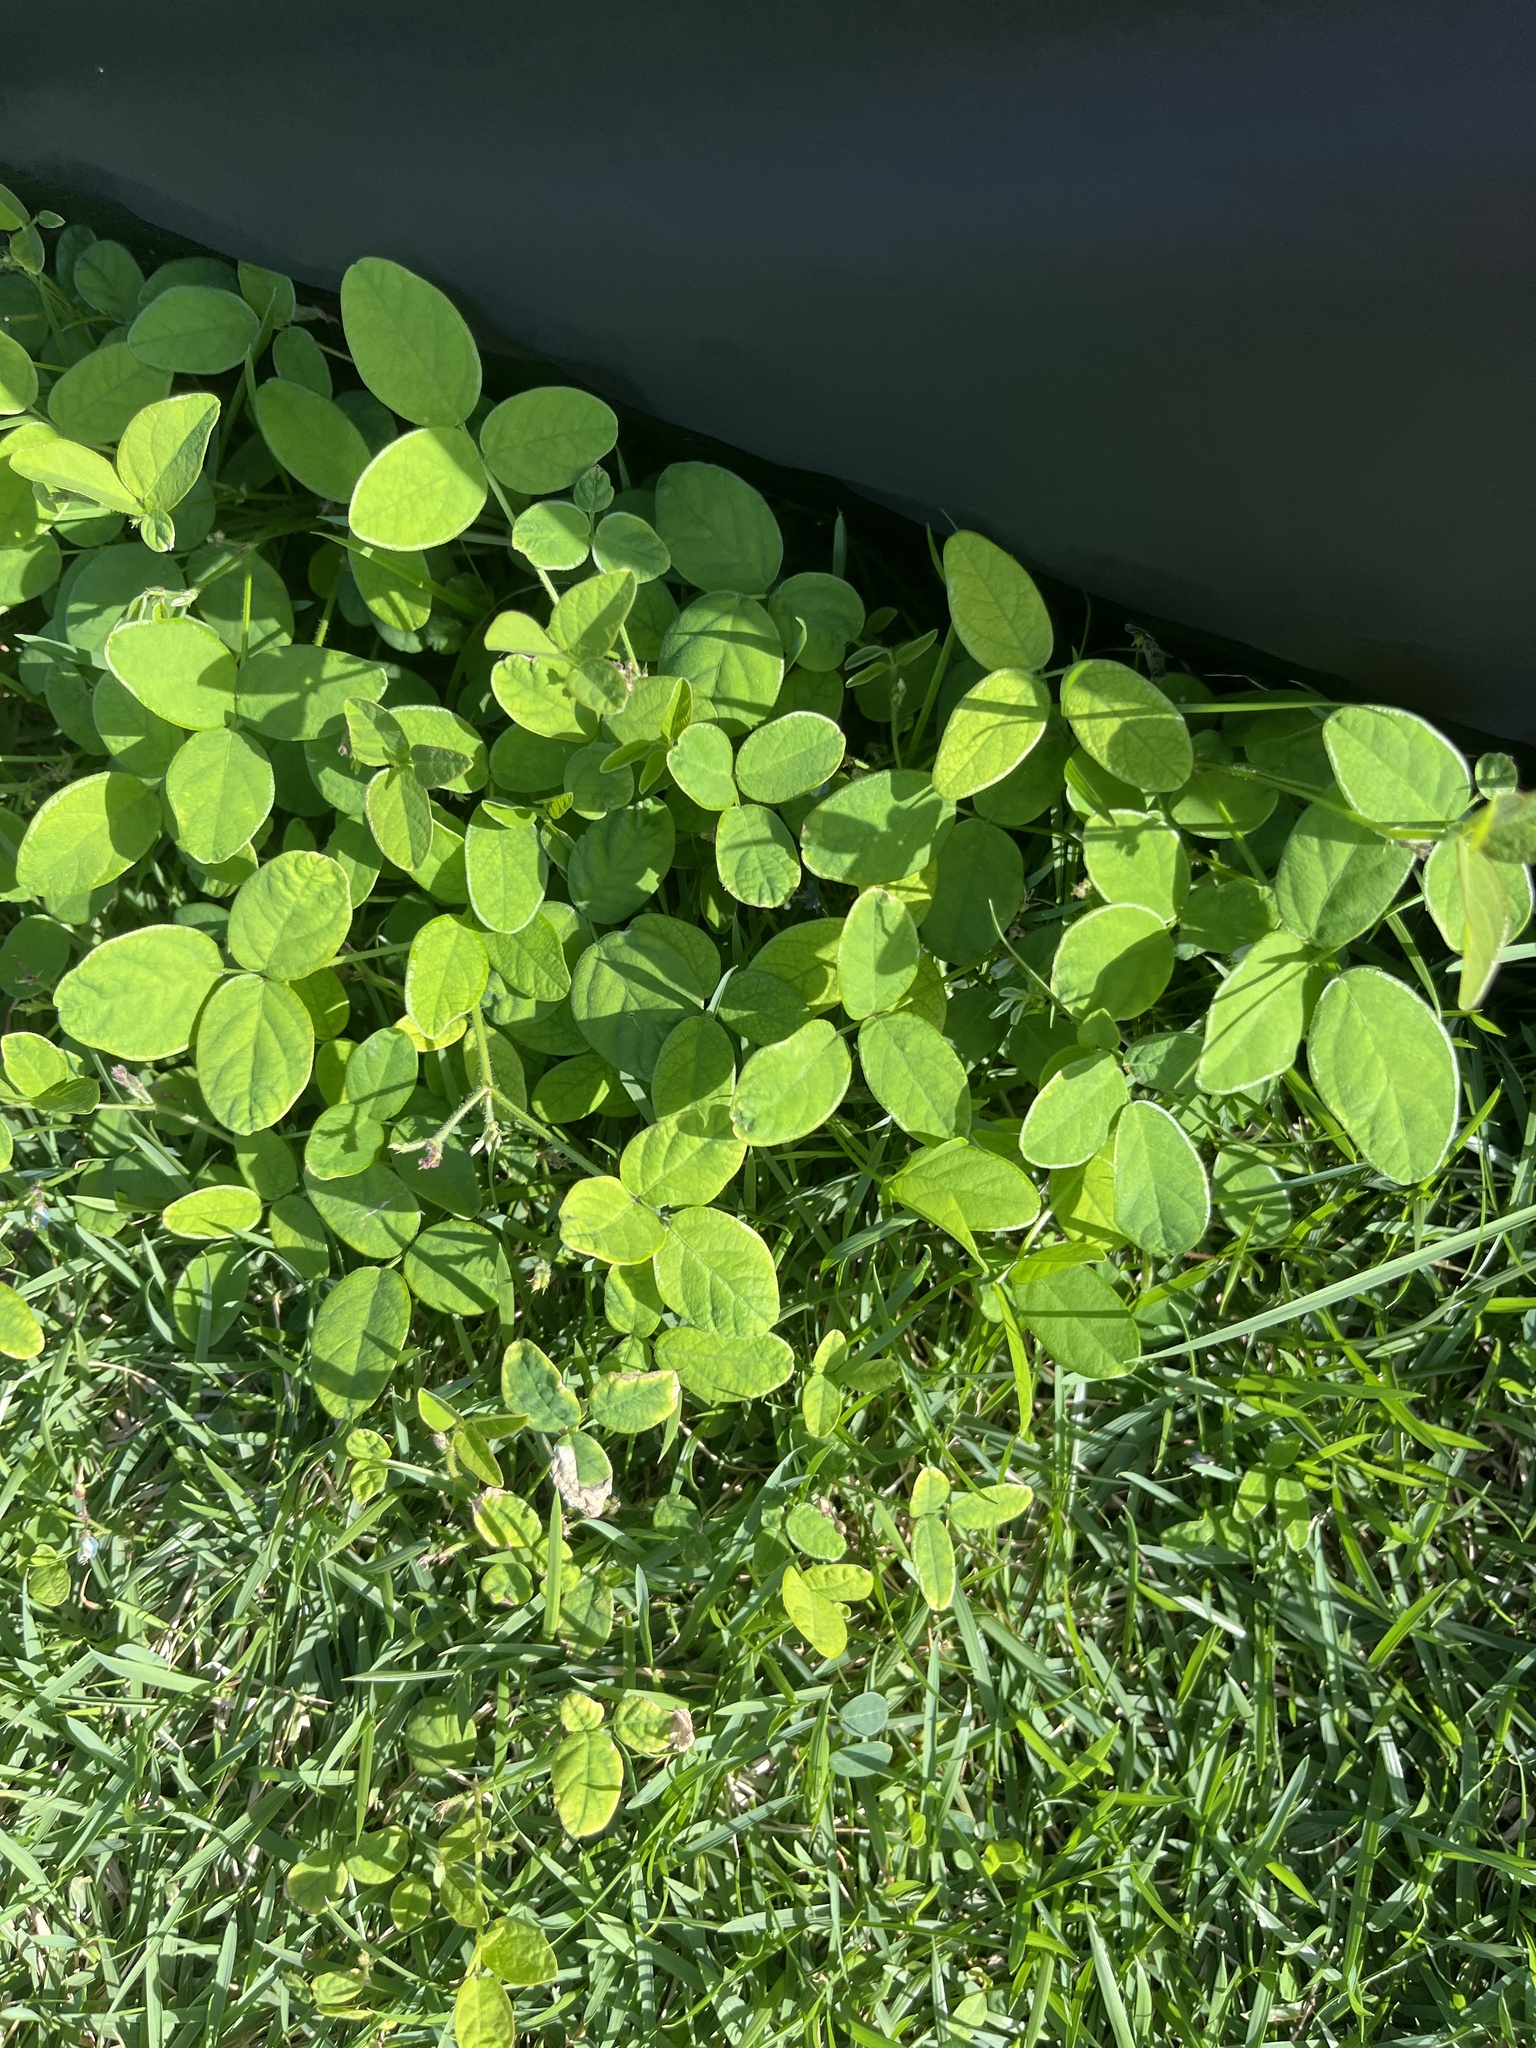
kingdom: Plantae
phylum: Tracheophyta
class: Magnoliopsida
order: Fabales
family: Fabaceae
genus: Desmodium
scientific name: Desmodium incanum
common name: Tickclover
